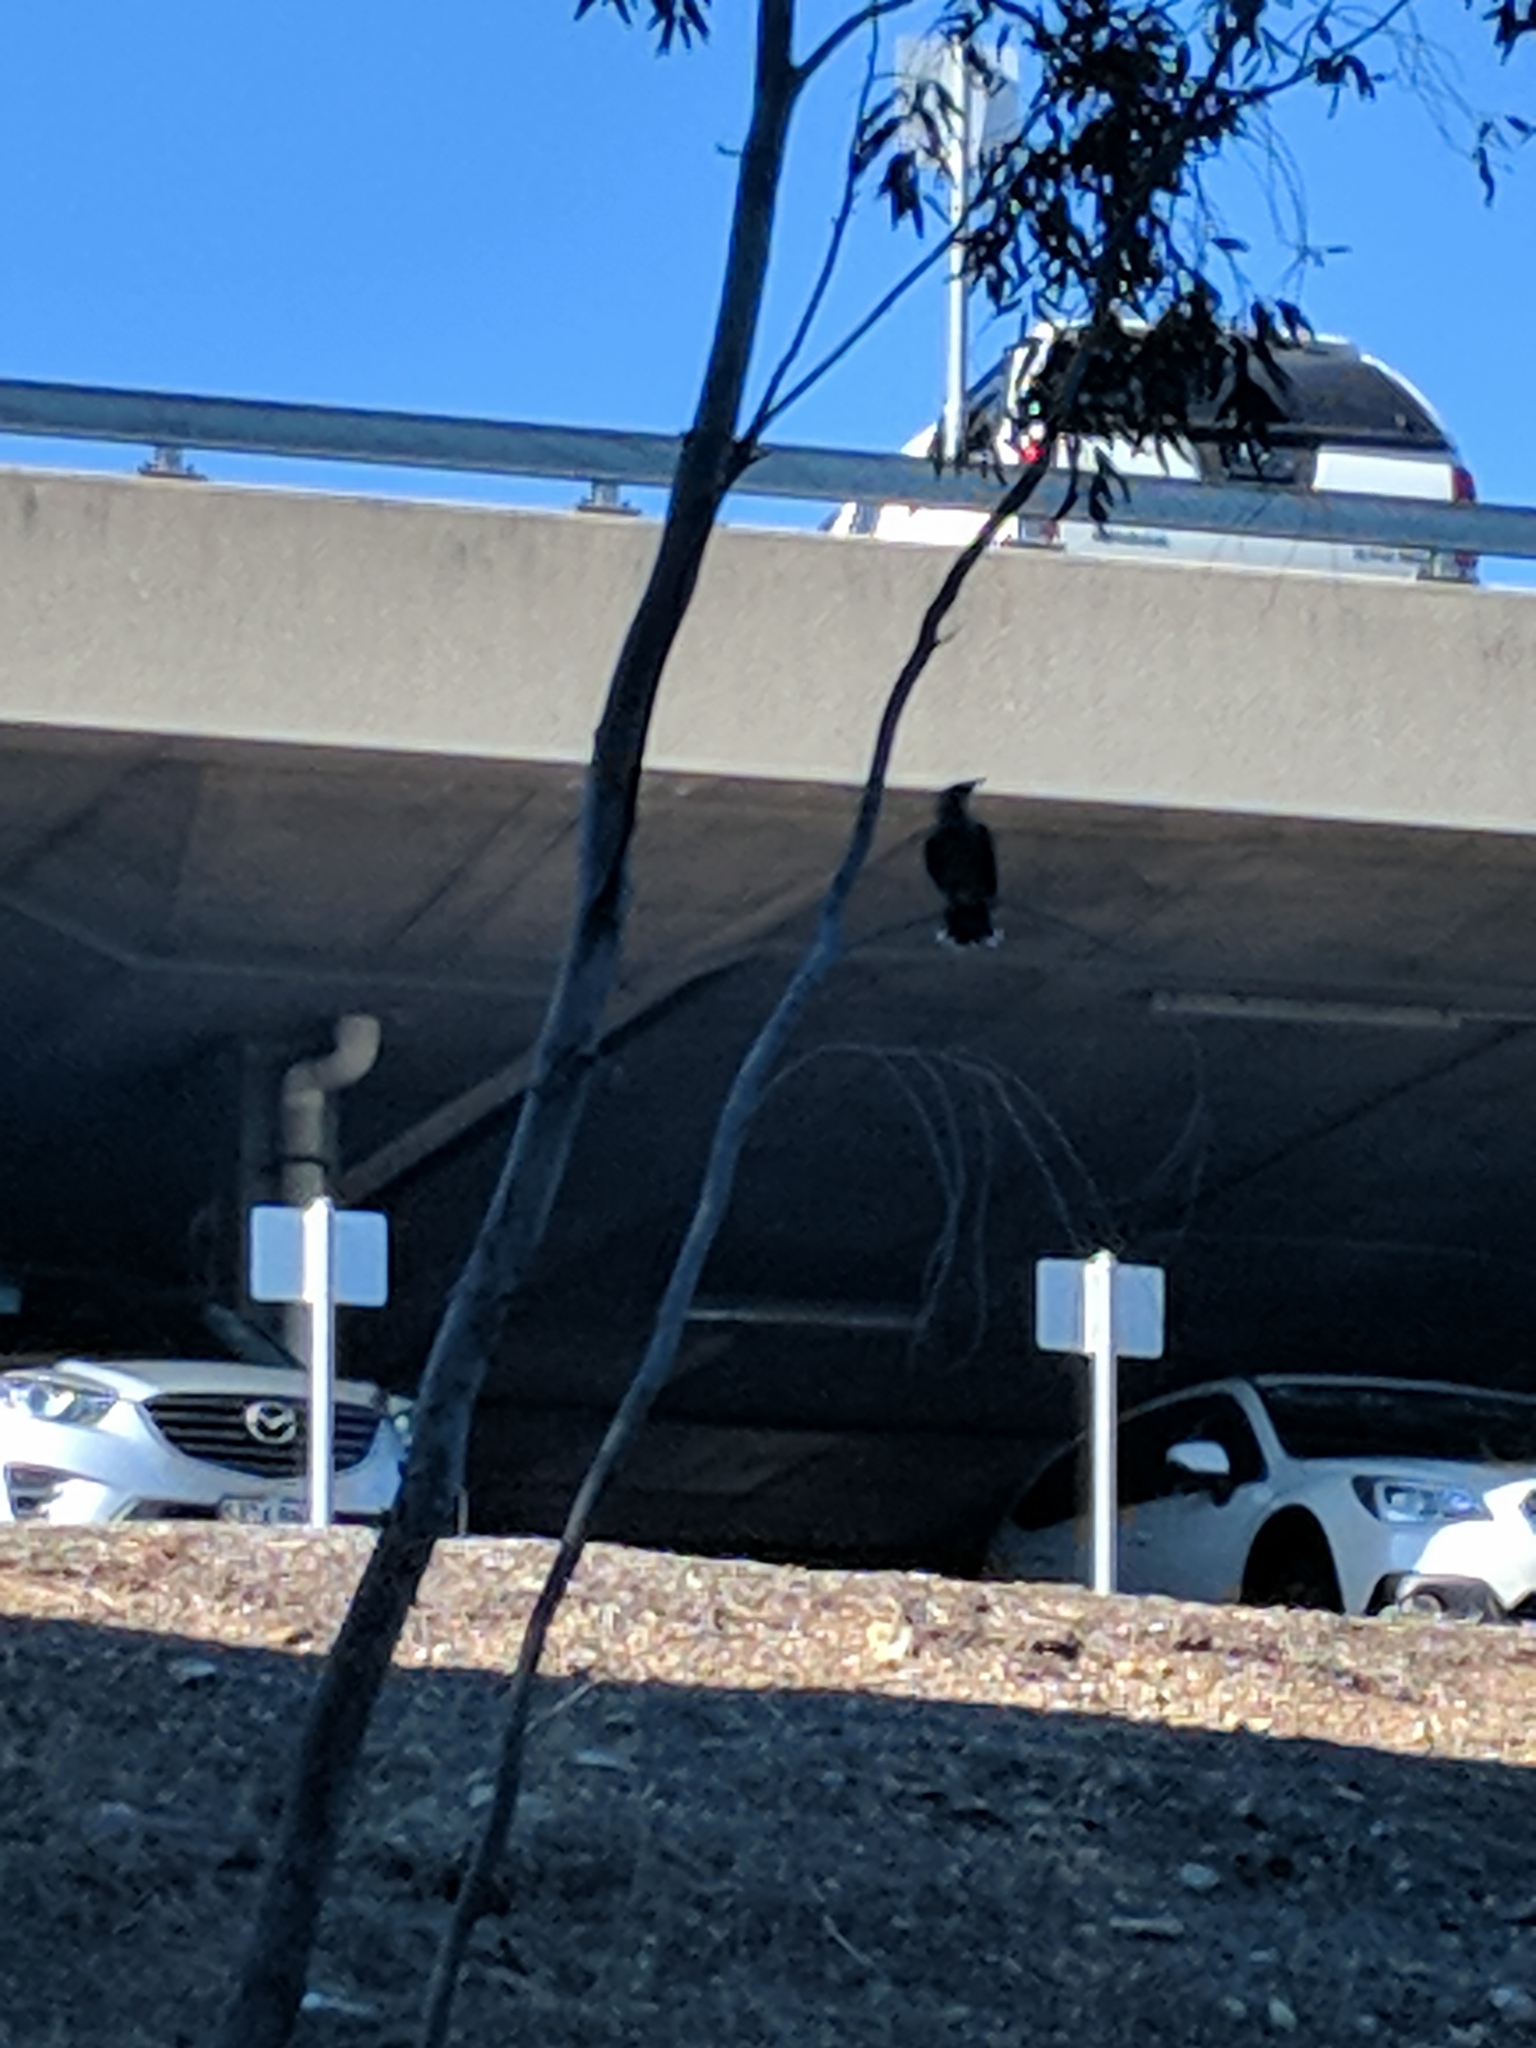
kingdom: Animalia
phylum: Chordata
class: Aves
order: Passeriformes
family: Meliphagidae
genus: Anthochaera
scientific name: Anthochaera
